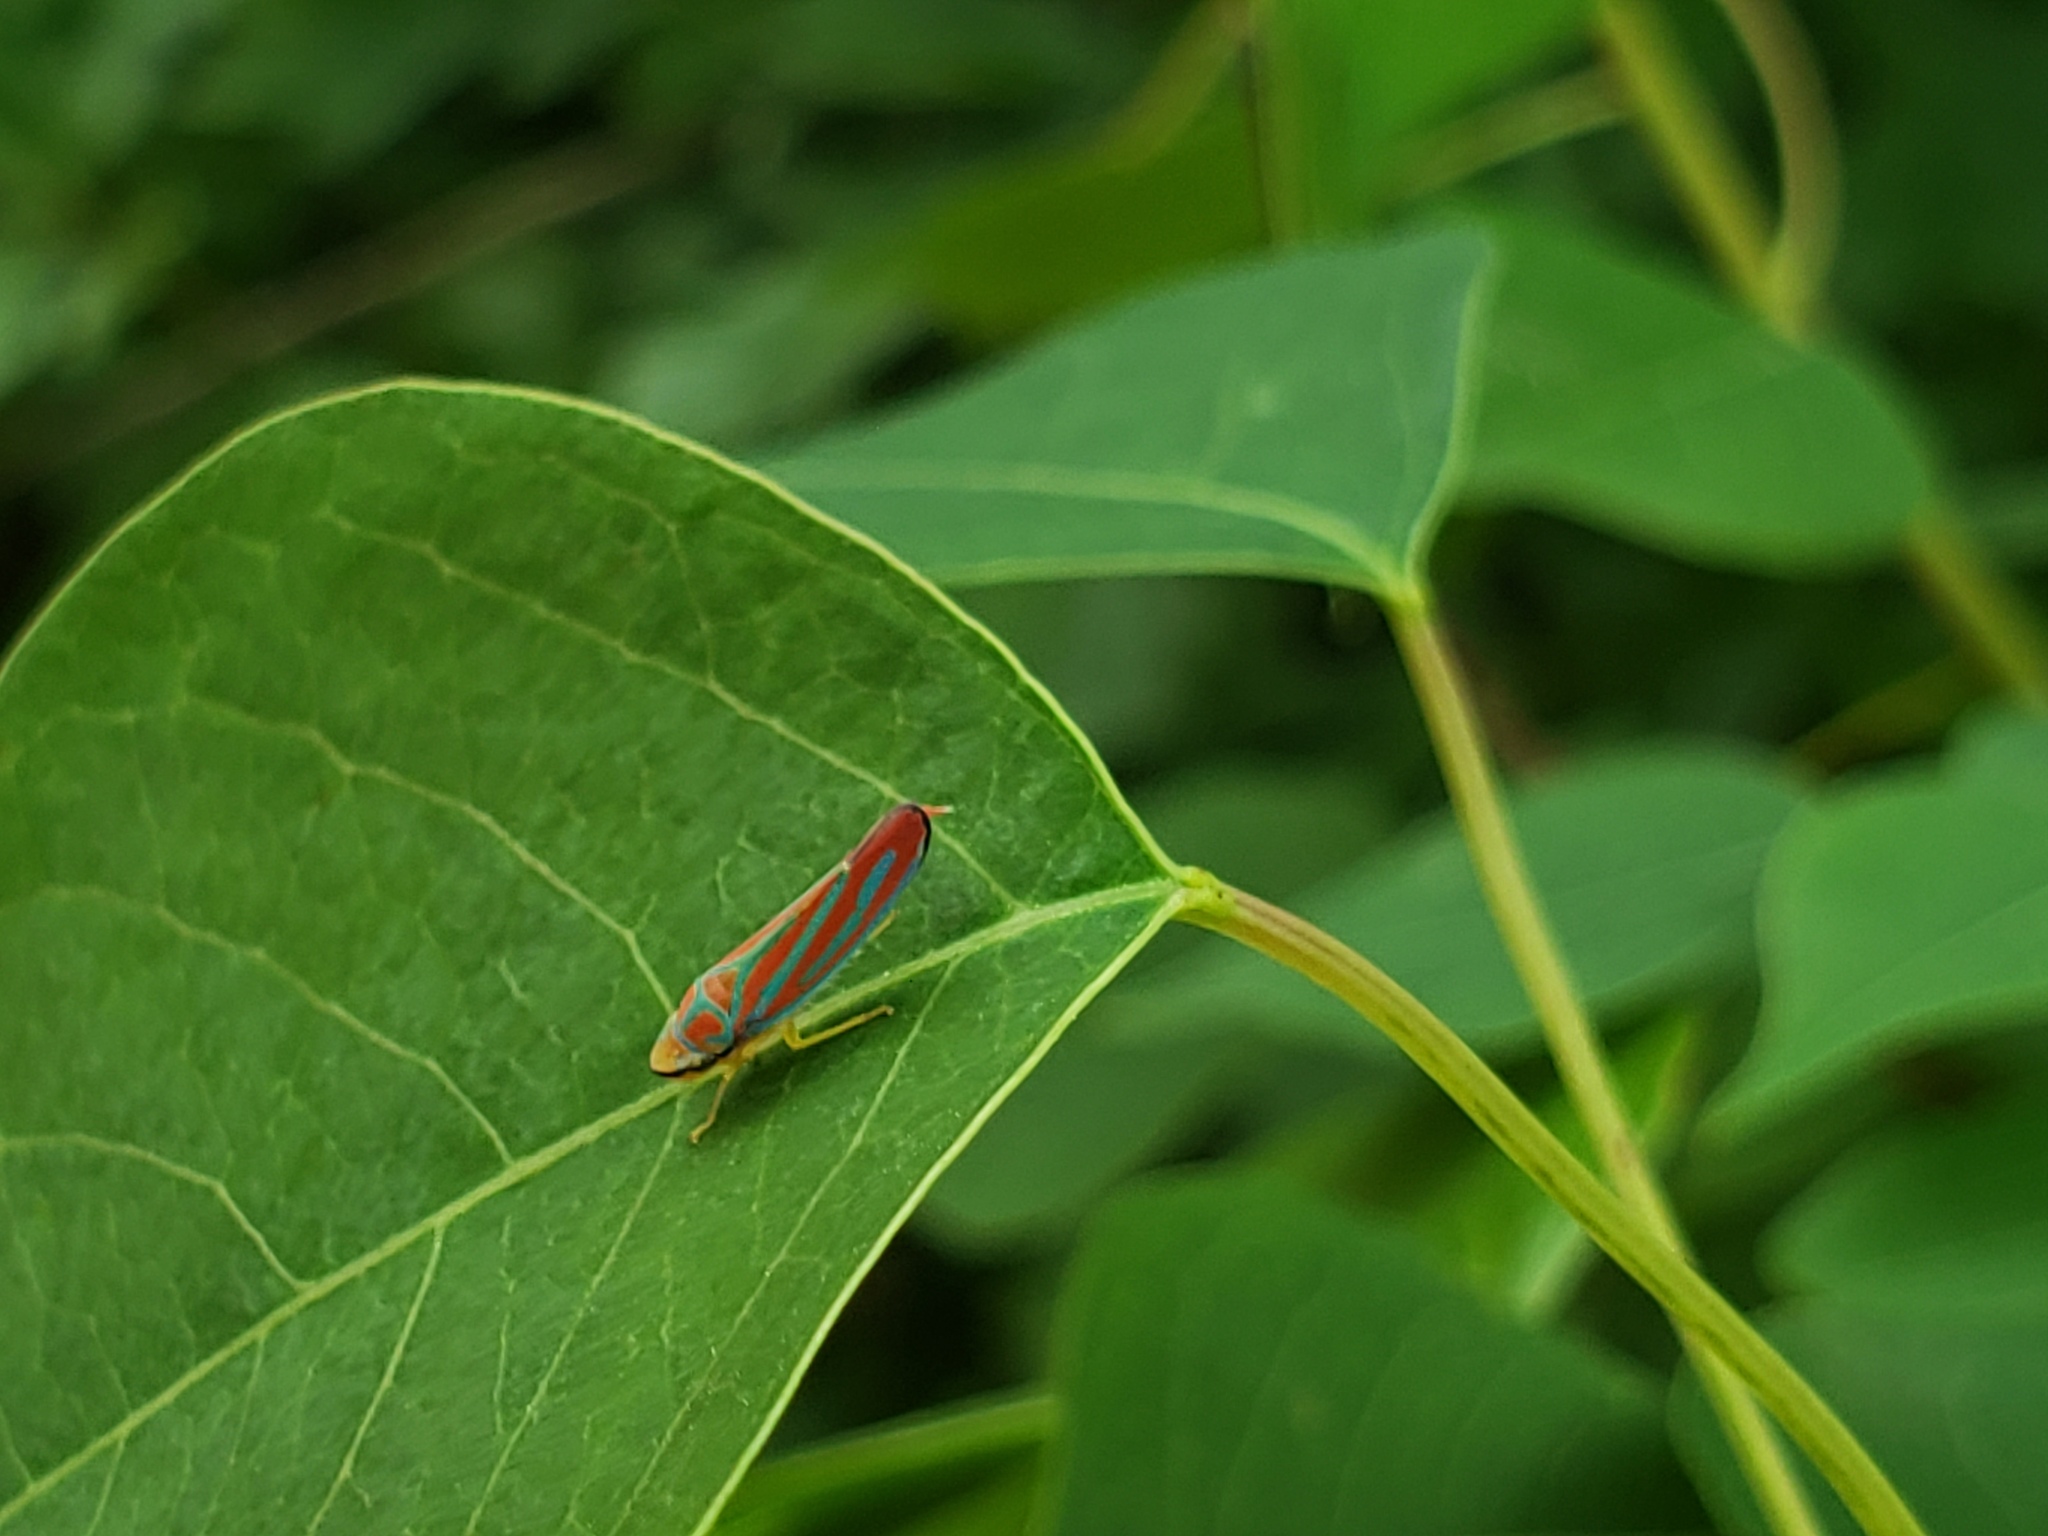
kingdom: Animalia
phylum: Arthropoda
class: Insecta
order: Hemiptera
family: Cicadellidae
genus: Graphocephala
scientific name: Graphocephala coccinea
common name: Candy-striped leafhopper
